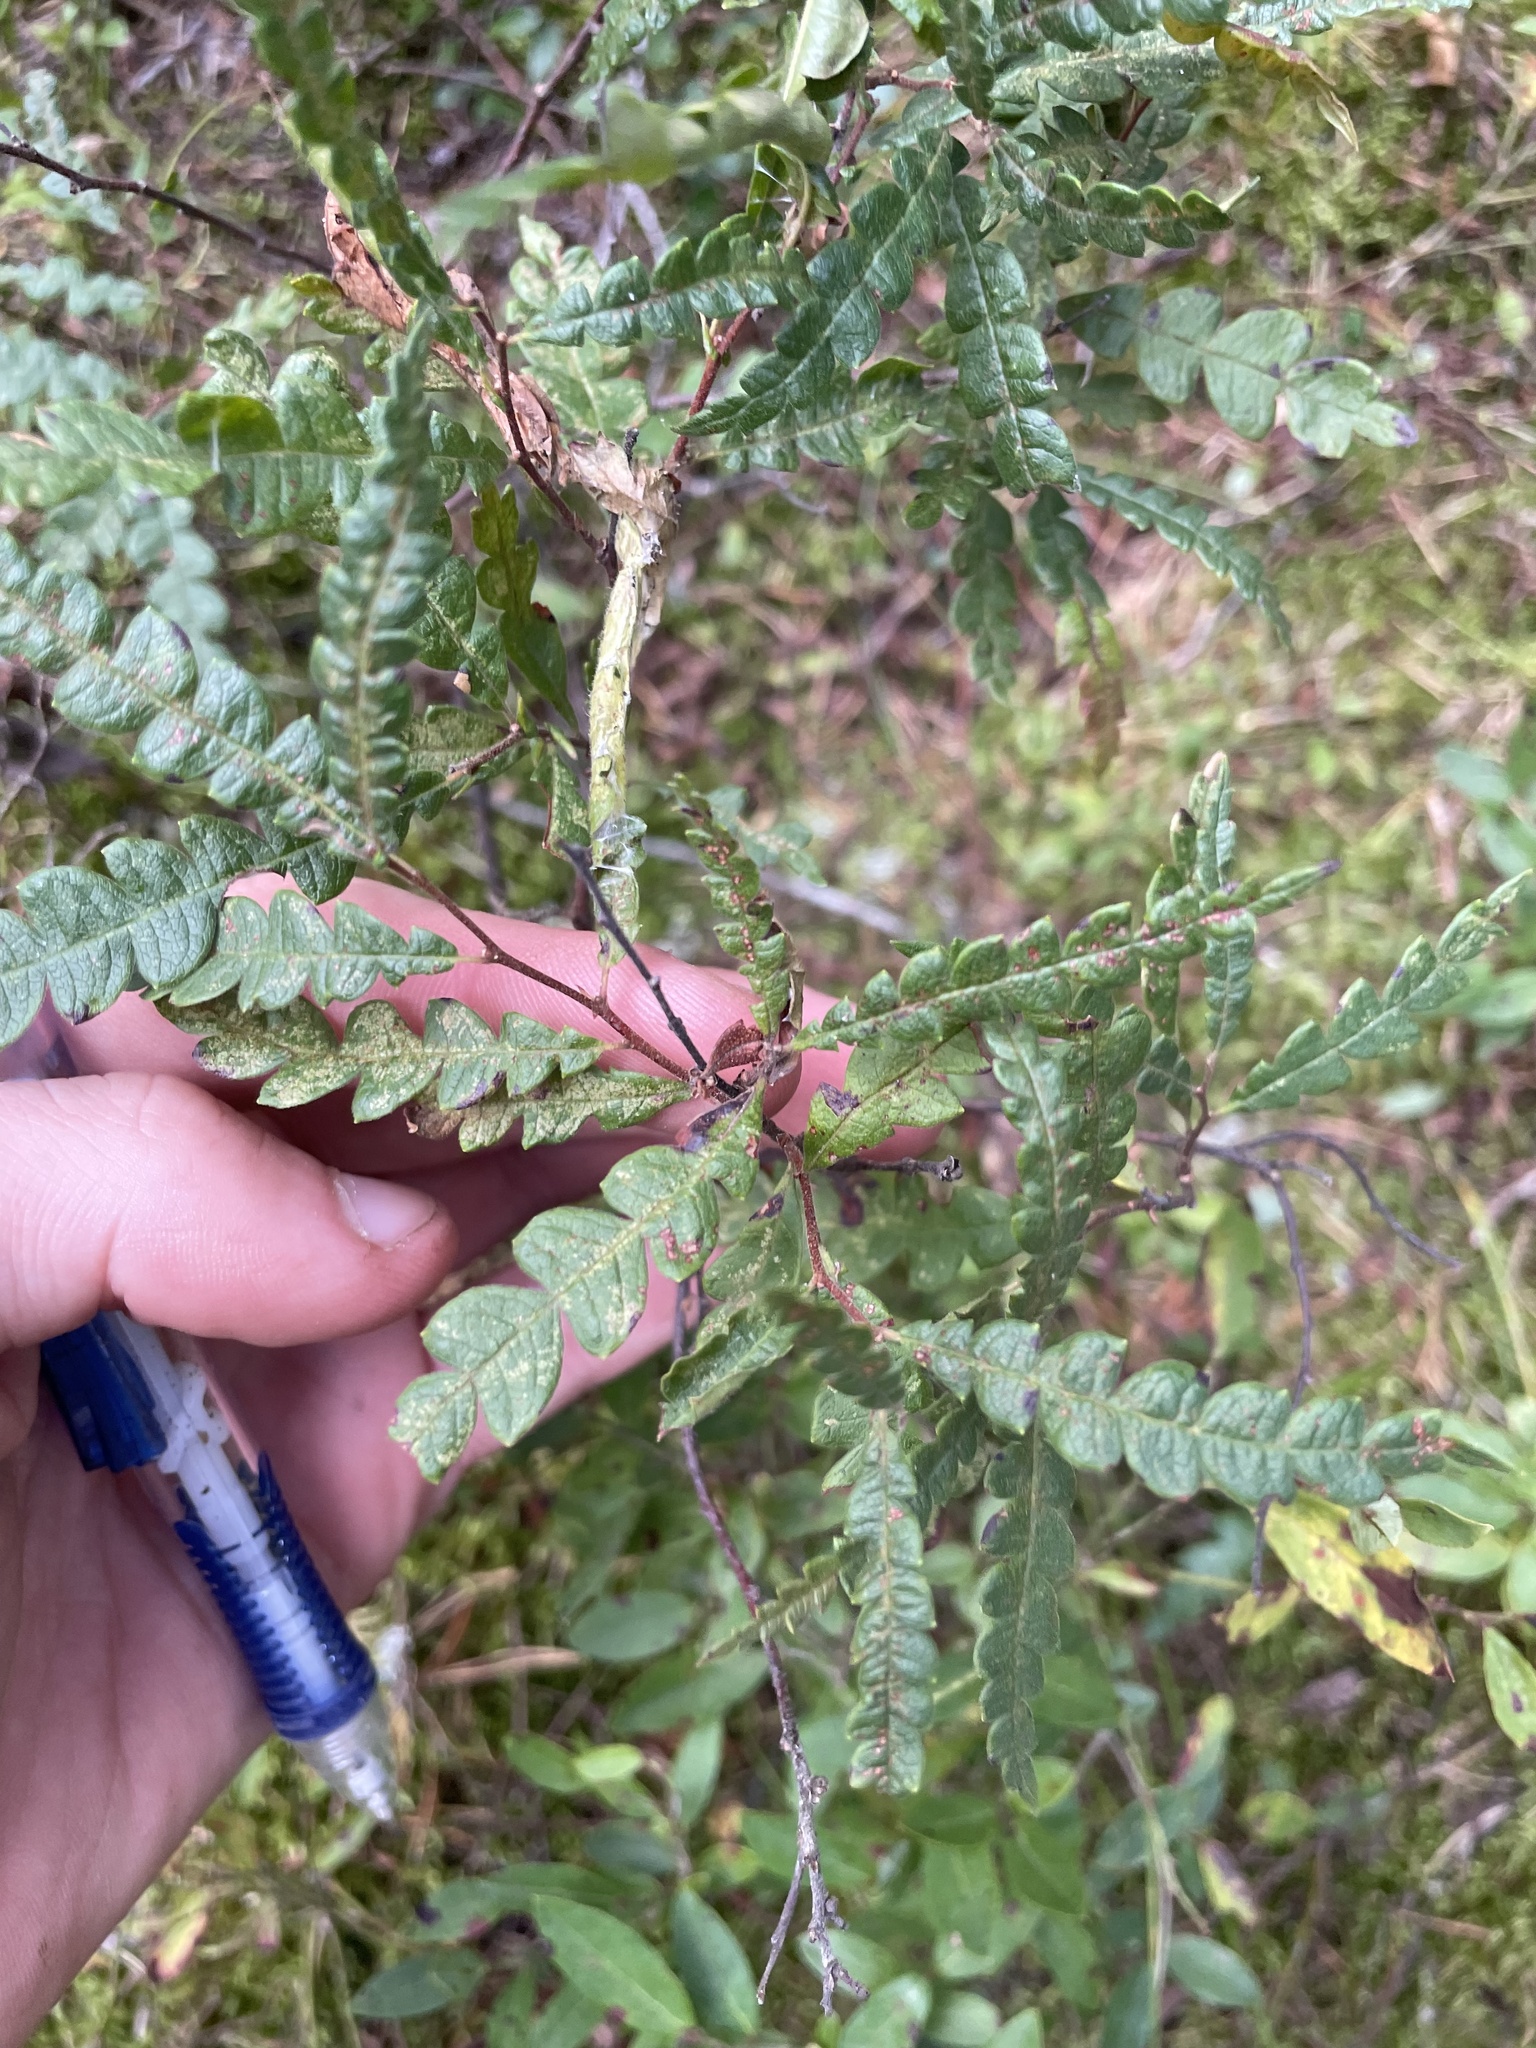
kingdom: Plantae
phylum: Tracheophyta
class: Magnoliopsida
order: Fagales
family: Myricaceae
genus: Comptonia
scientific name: Comptonia peregrina
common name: Sweet-fern
